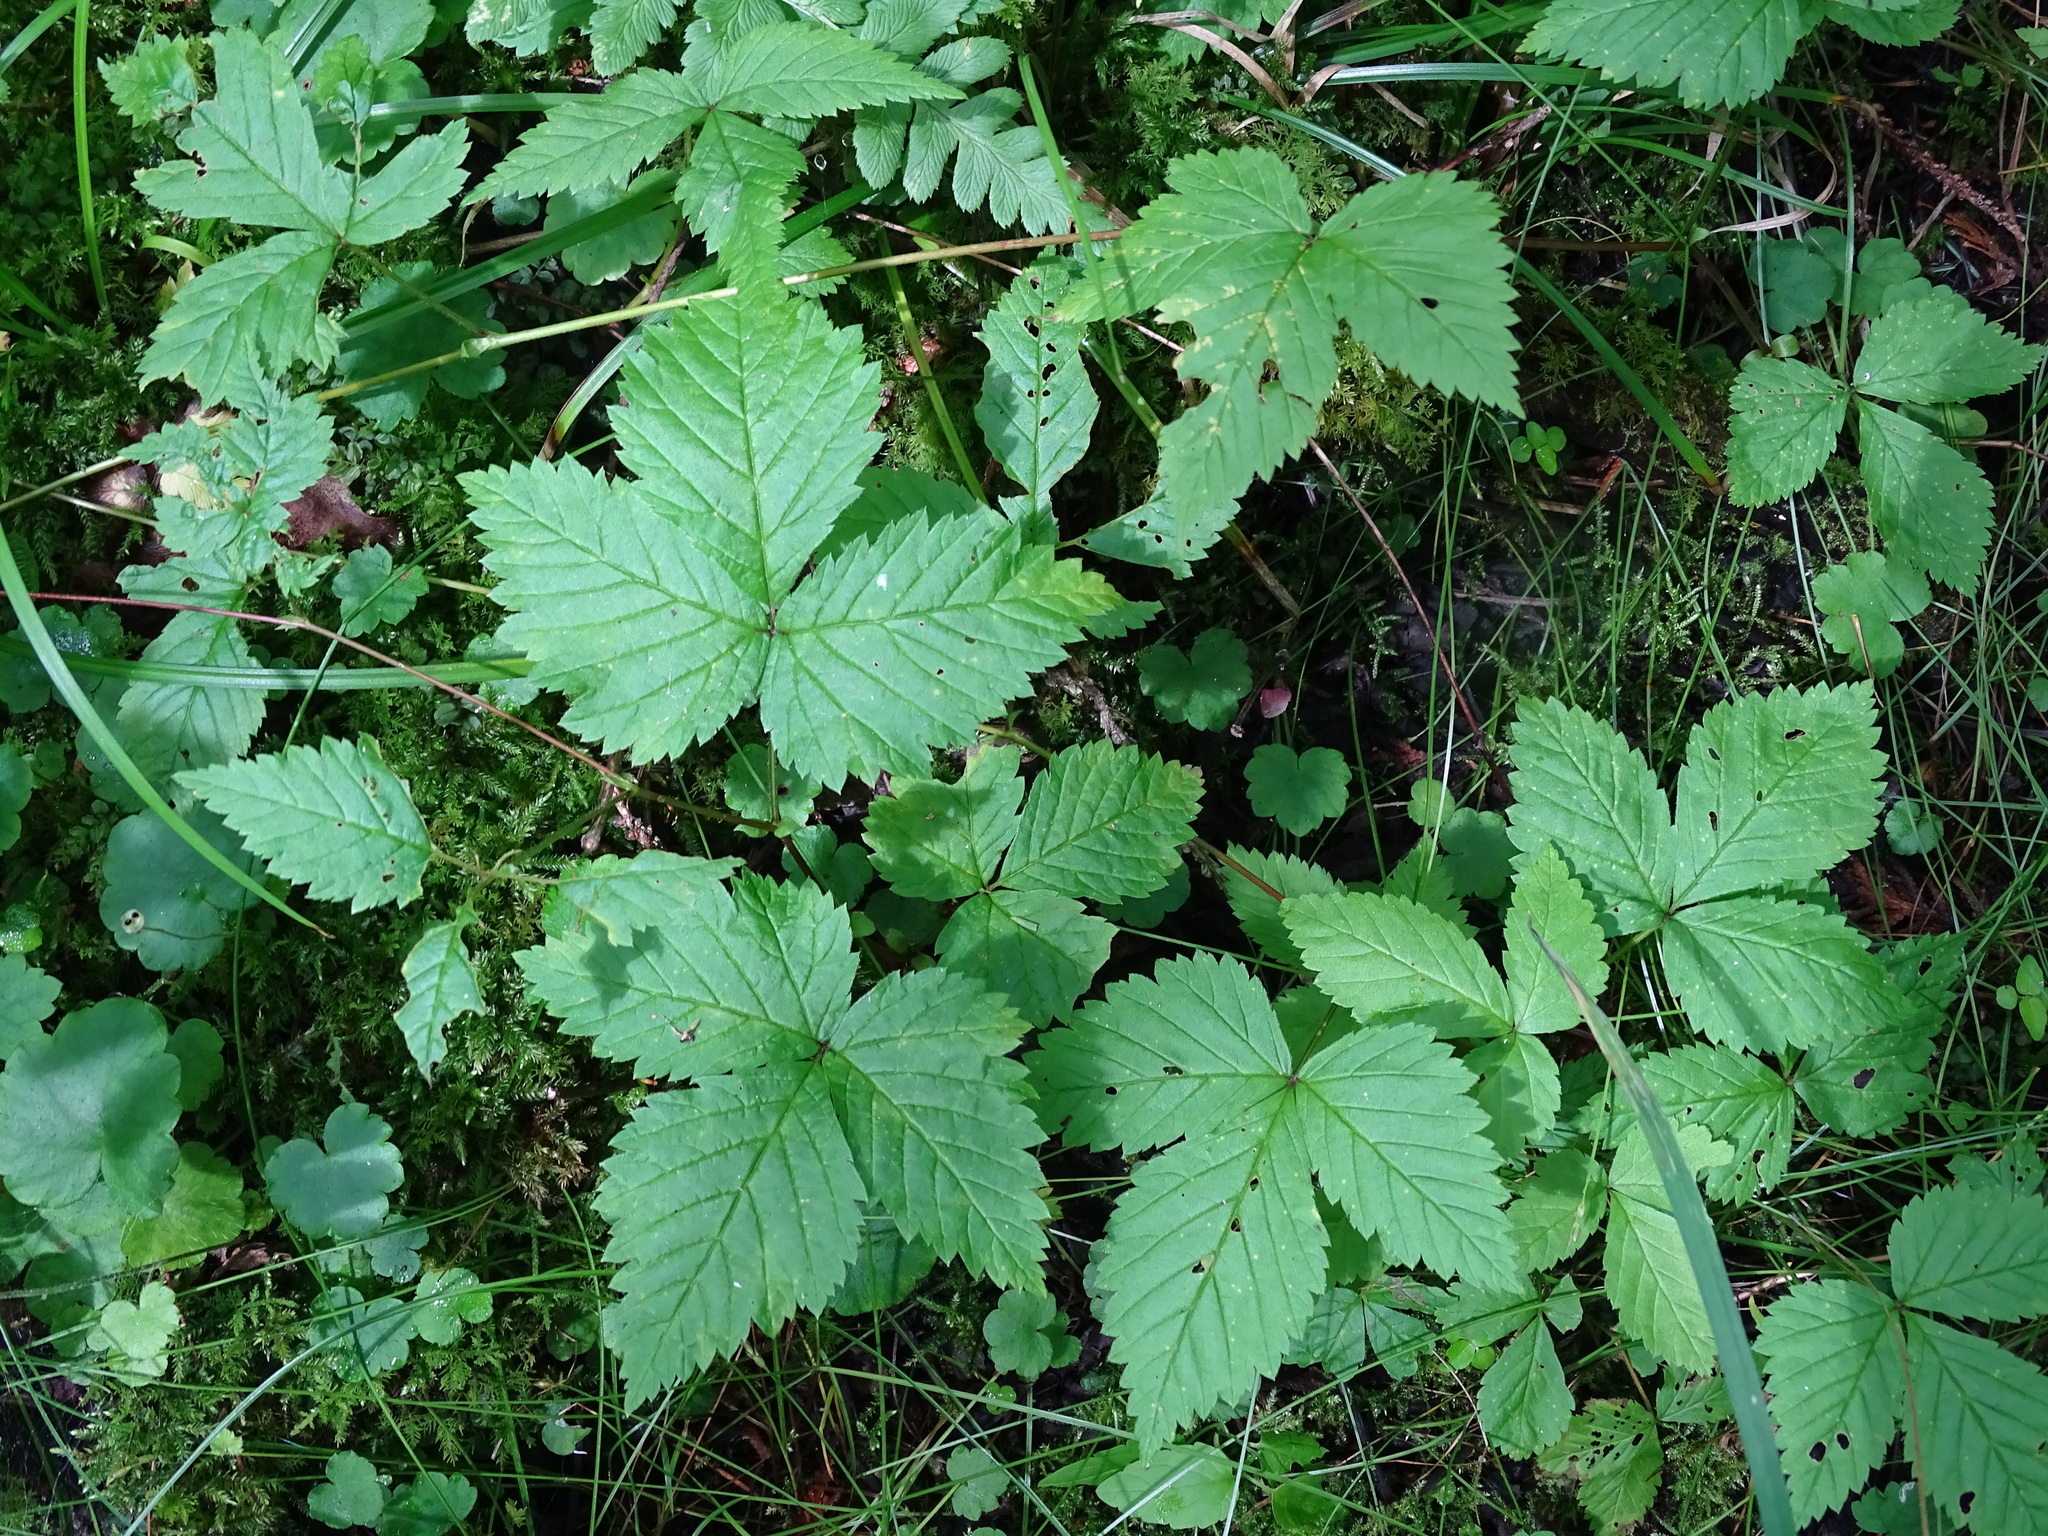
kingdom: Plantae
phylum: Tracheophyta
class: Magnoliopsida
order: Rosales
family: Rosaceae
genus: Rubus
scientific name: Rubus pubescens
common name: Dwarf raspberry
